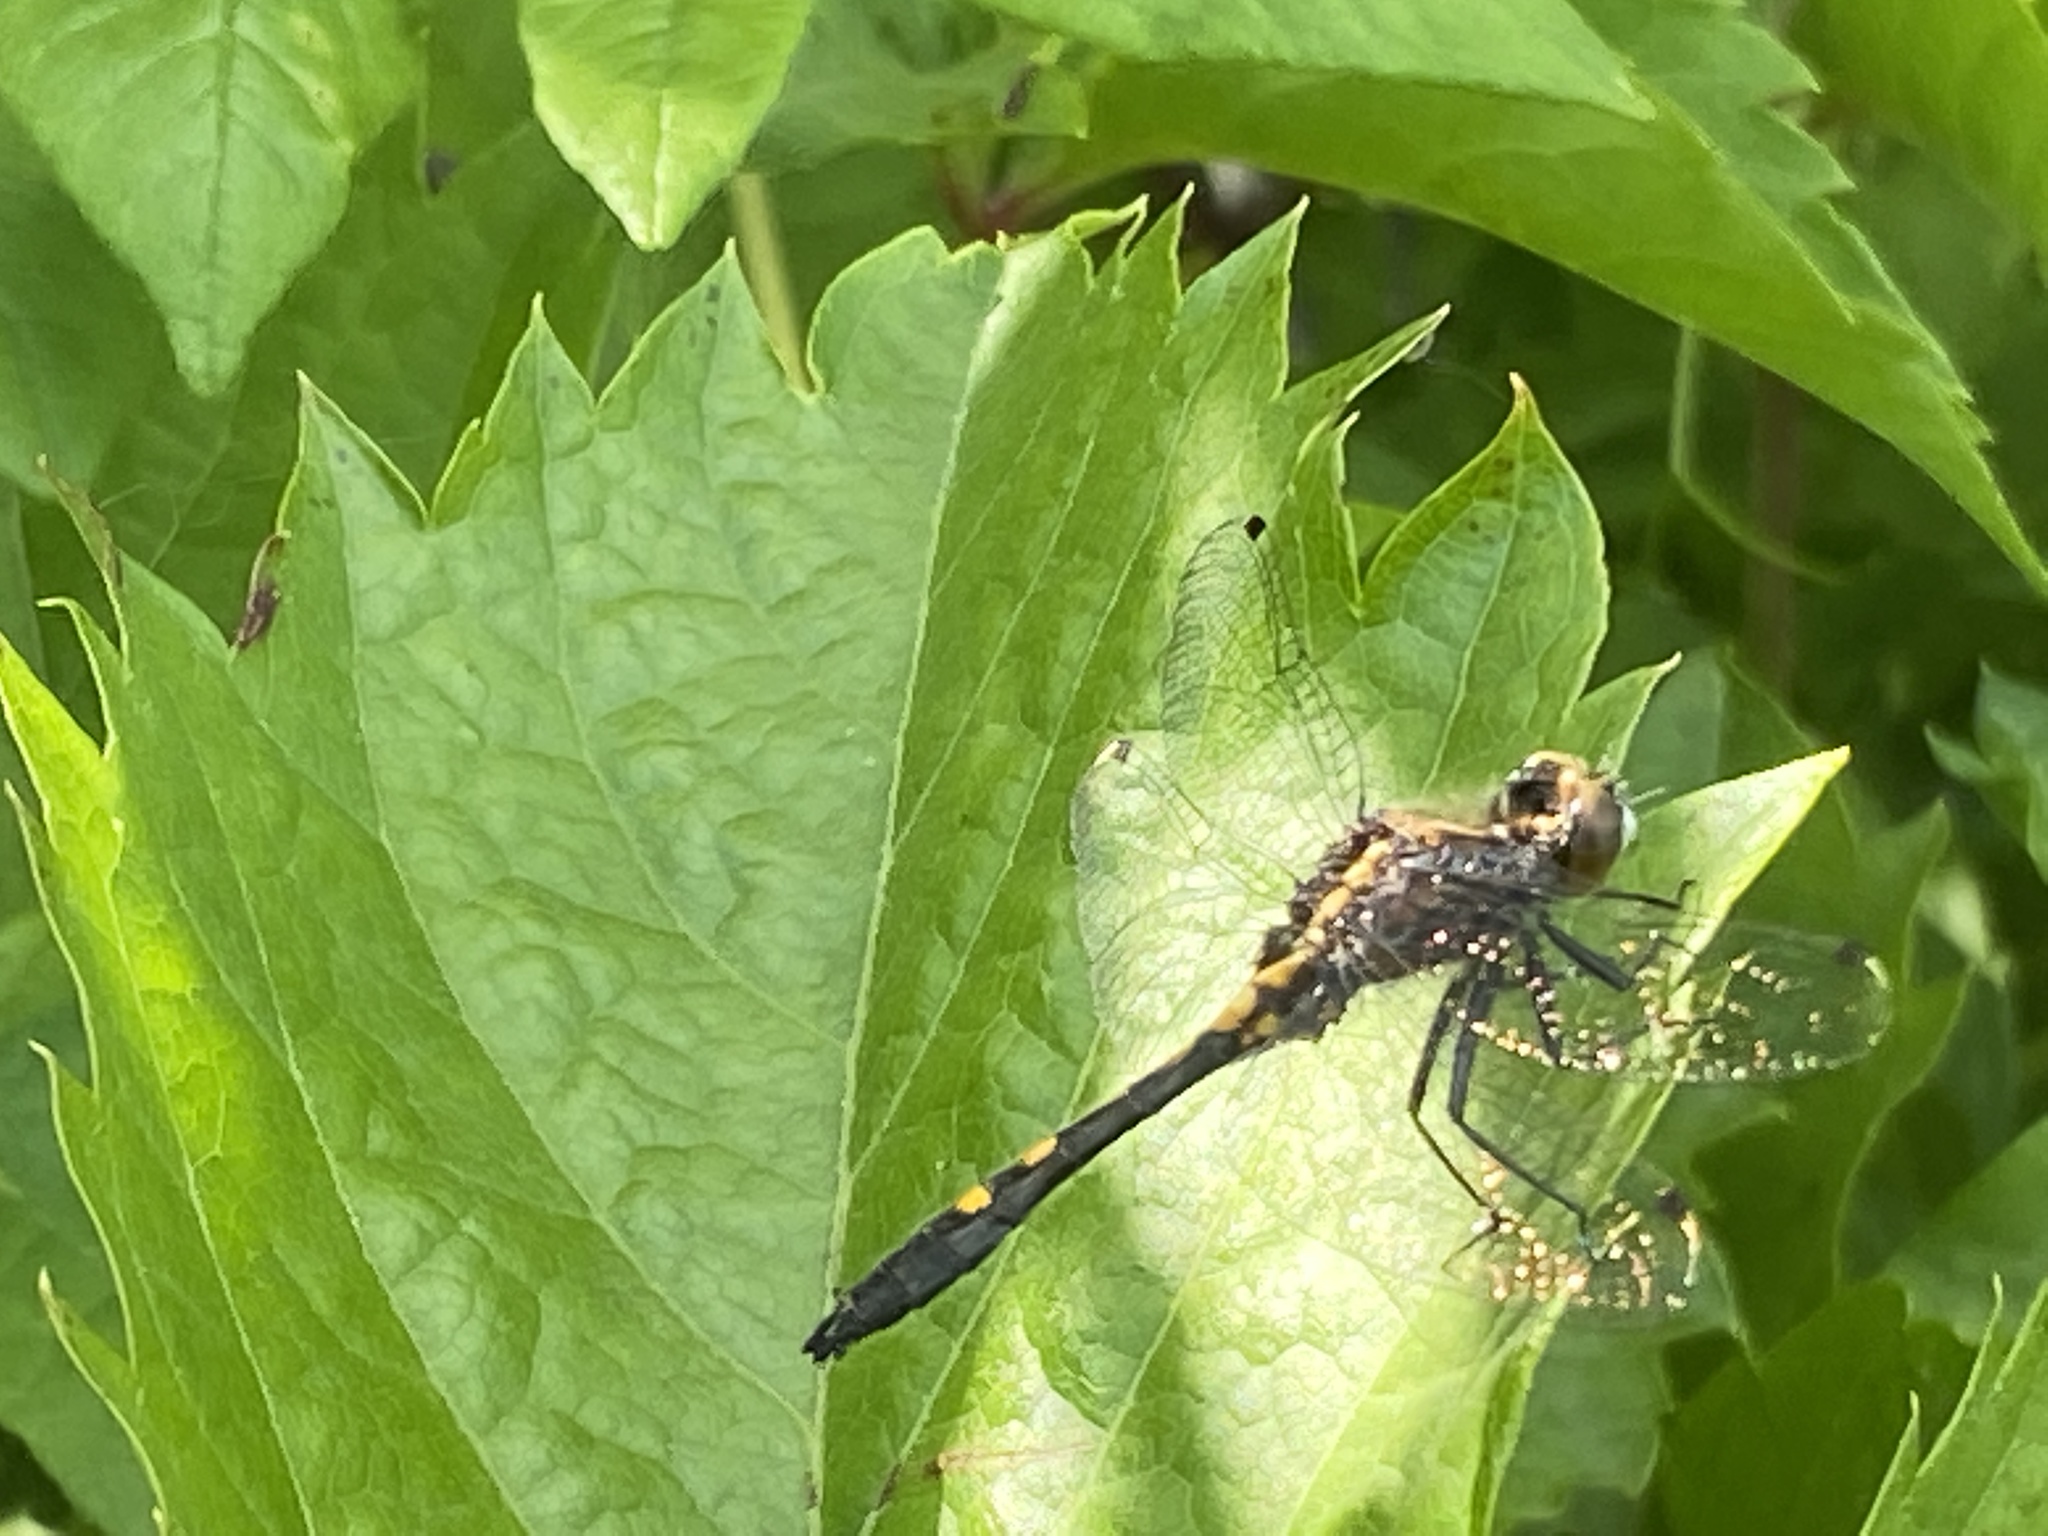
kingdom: Animalia
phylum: Arthropoda
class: Insecta
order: Odonata
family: Libellulidae
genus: Leucorrhinia
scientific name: Leucorrhinia intacta
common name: Dot-tailed whiteface
